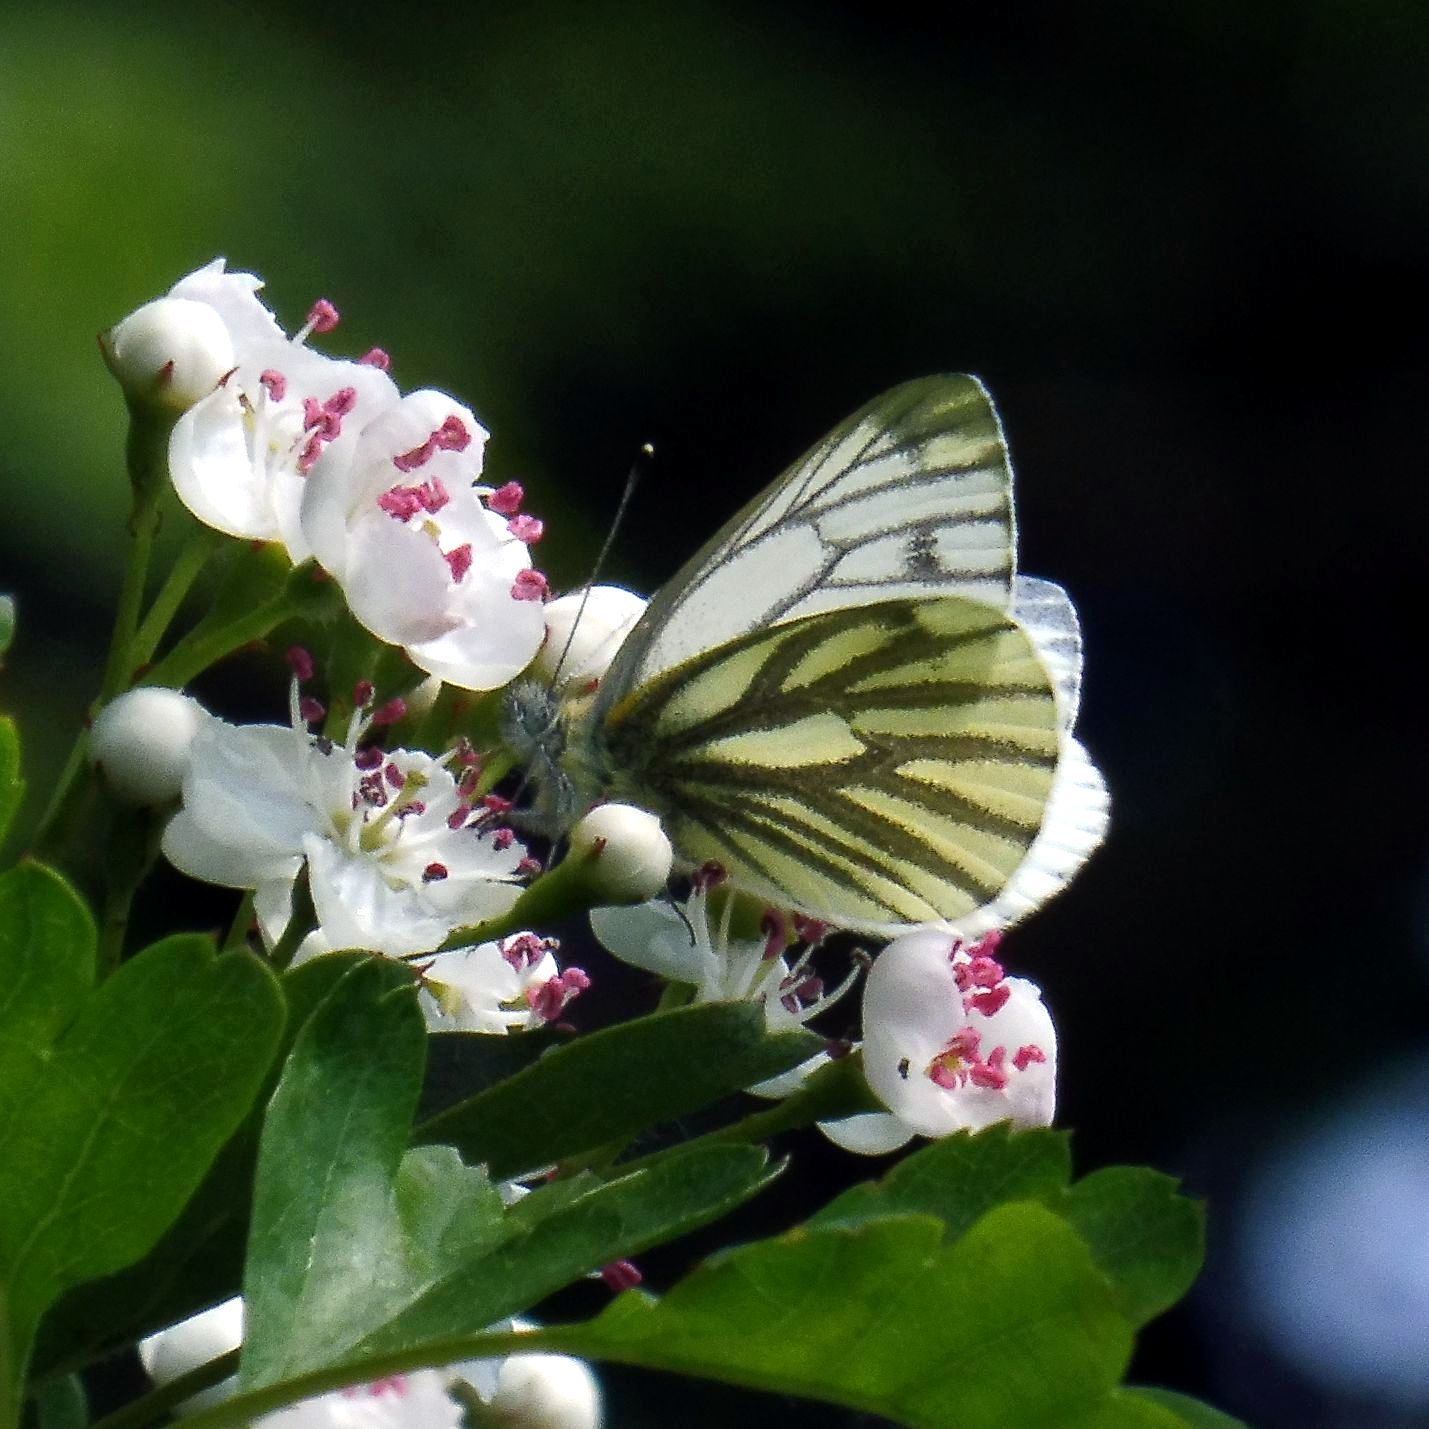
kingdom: Animalia
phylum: Arthropoda
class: Insecta
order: Lepidoptera
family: Pieridae
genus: Pieris
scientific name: Pieris napi
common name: Green-veined white
